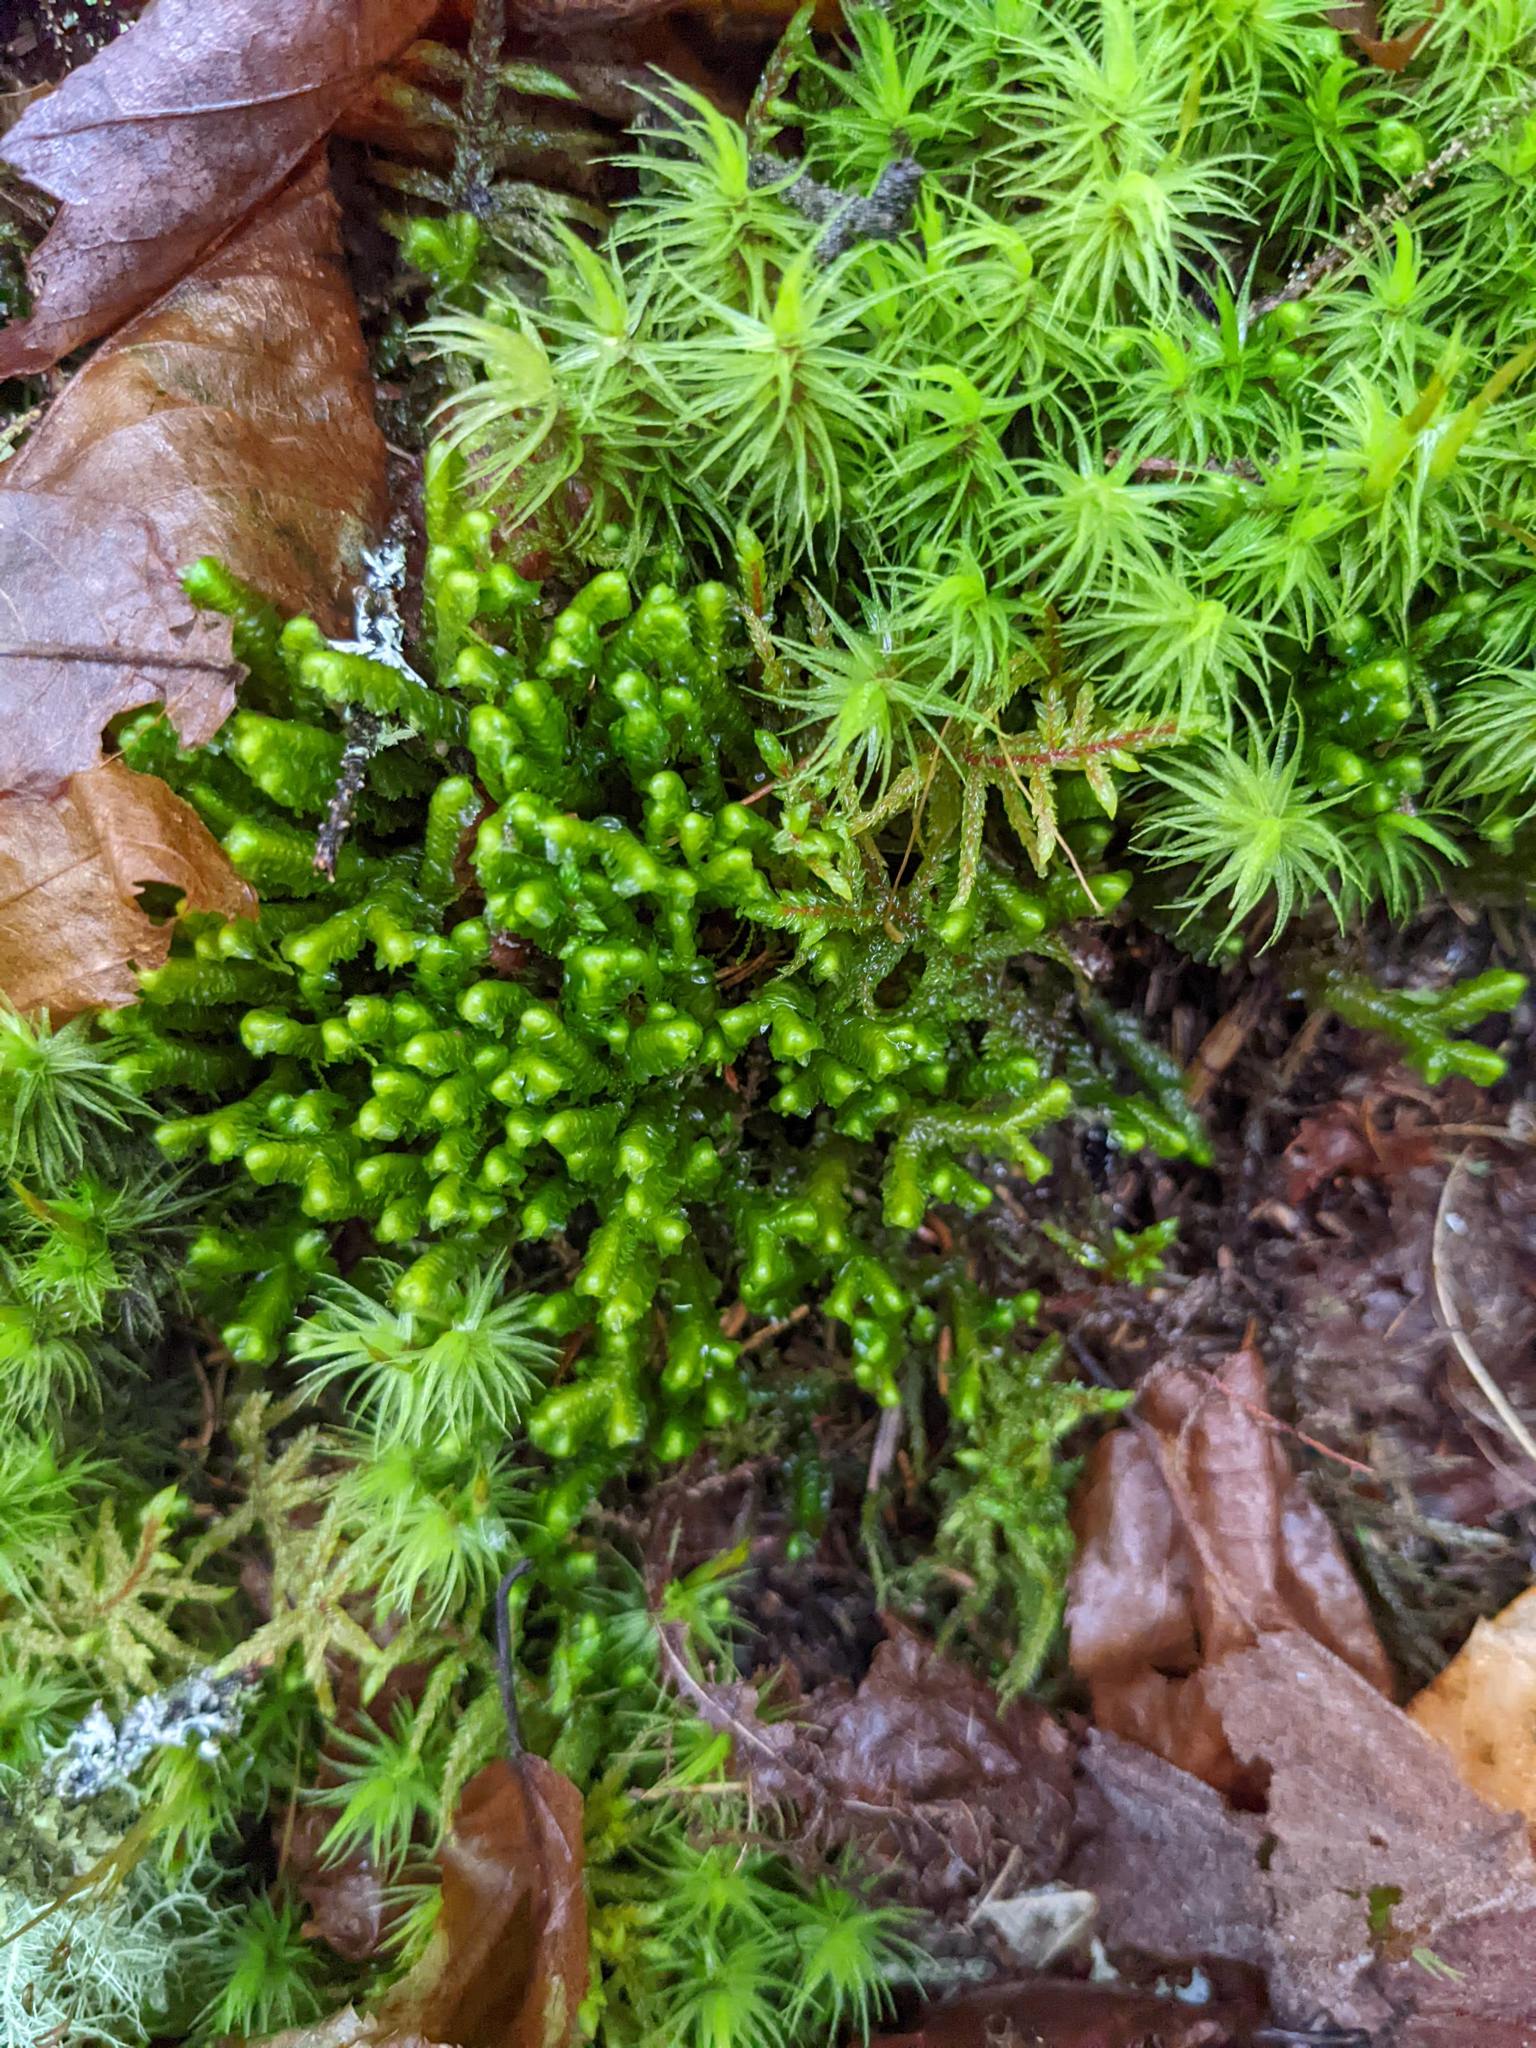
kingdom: Plantae
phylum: Marchantiophyta
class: Jungermanniopsida
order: Jungermanniales
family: Lepidoziaceae
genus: Bazzania
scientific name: Bazzania trilobata
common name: Three-lobed whipwort
